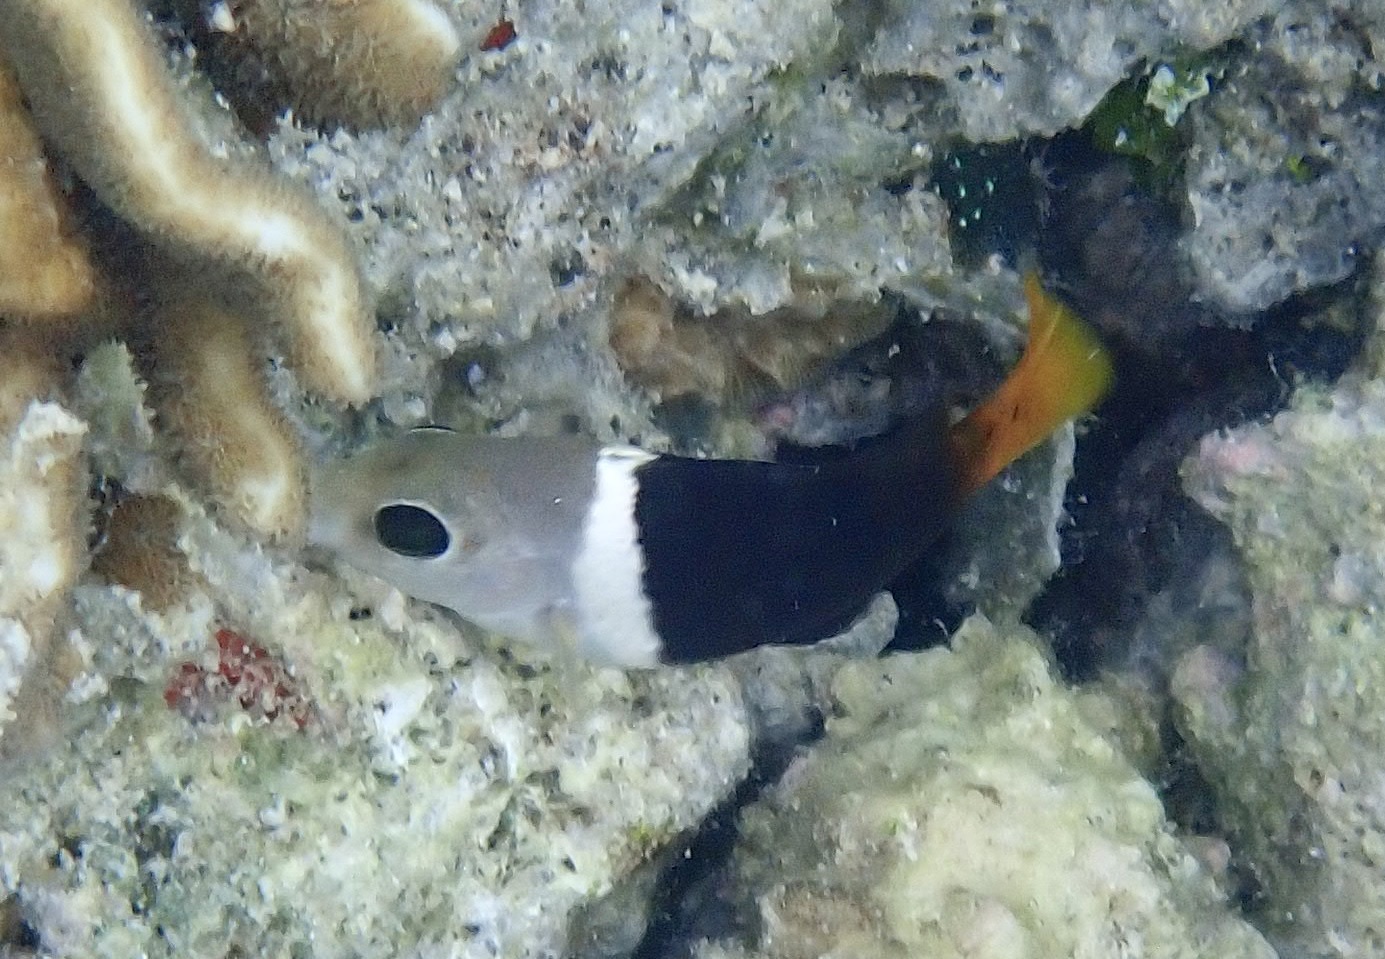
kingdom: Animalia
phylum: Chordata
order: Perciformes
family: Labridae
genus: Hemigymnus
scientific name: Hemigymnus melapterus
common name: Blackeye thicklip
